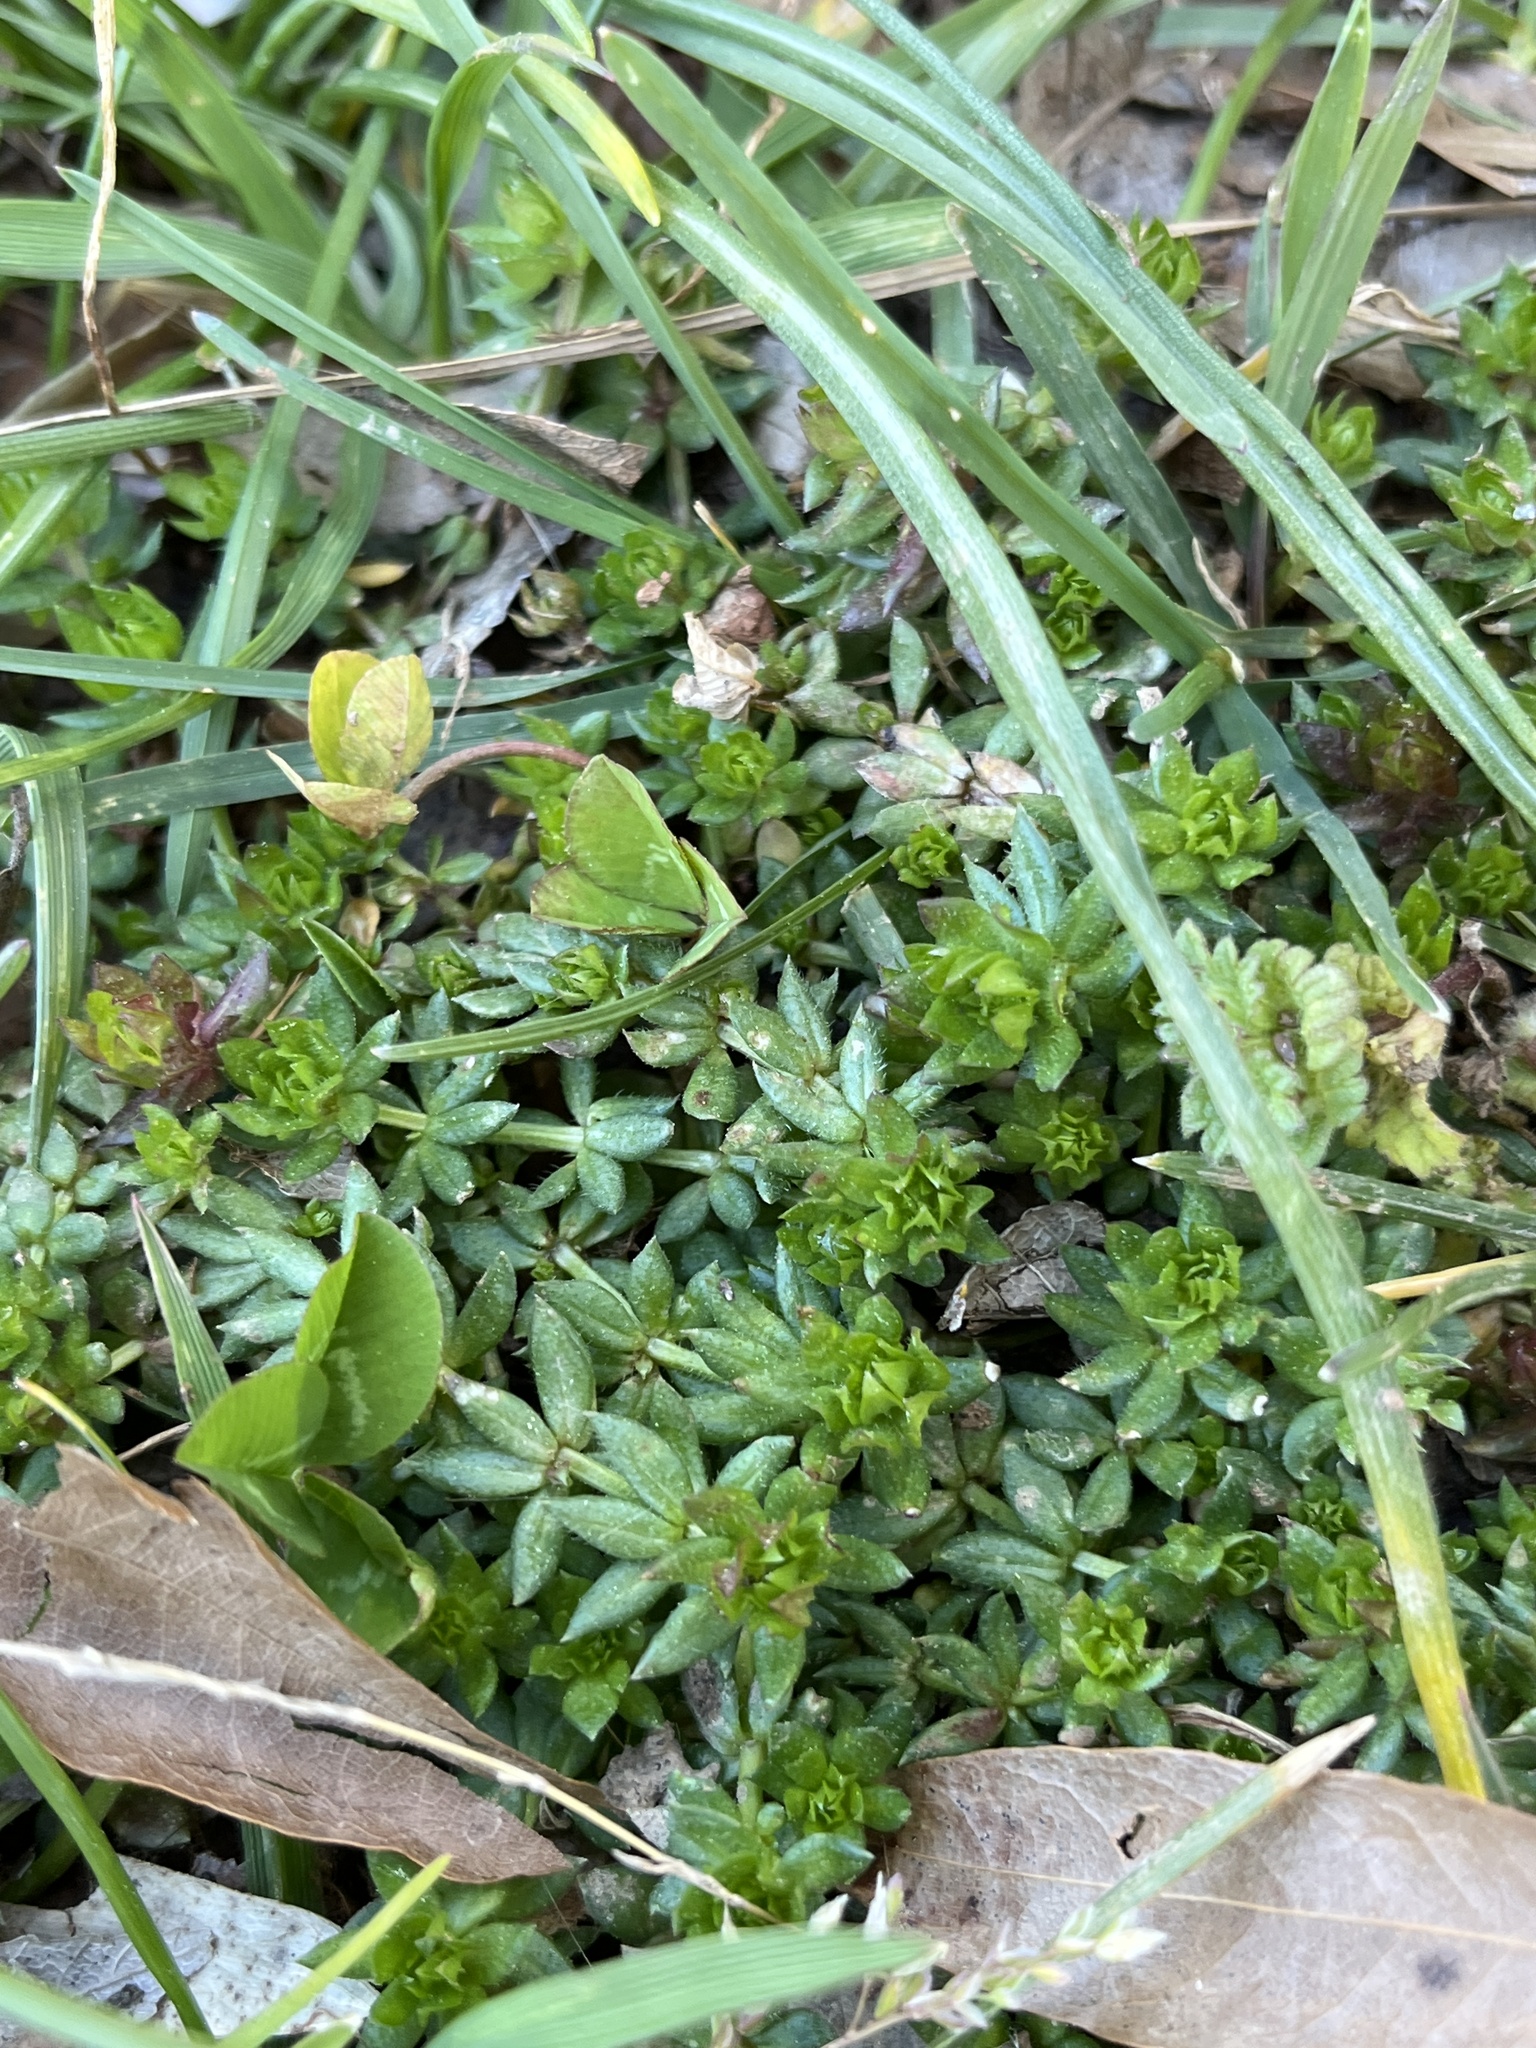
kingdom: Plantae
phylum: Tracheophyta
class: Magnoliopsida
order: Gentianales
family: Rubiaceae
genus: Sherardia
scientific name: Sherardia arvensis
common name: Field madder
